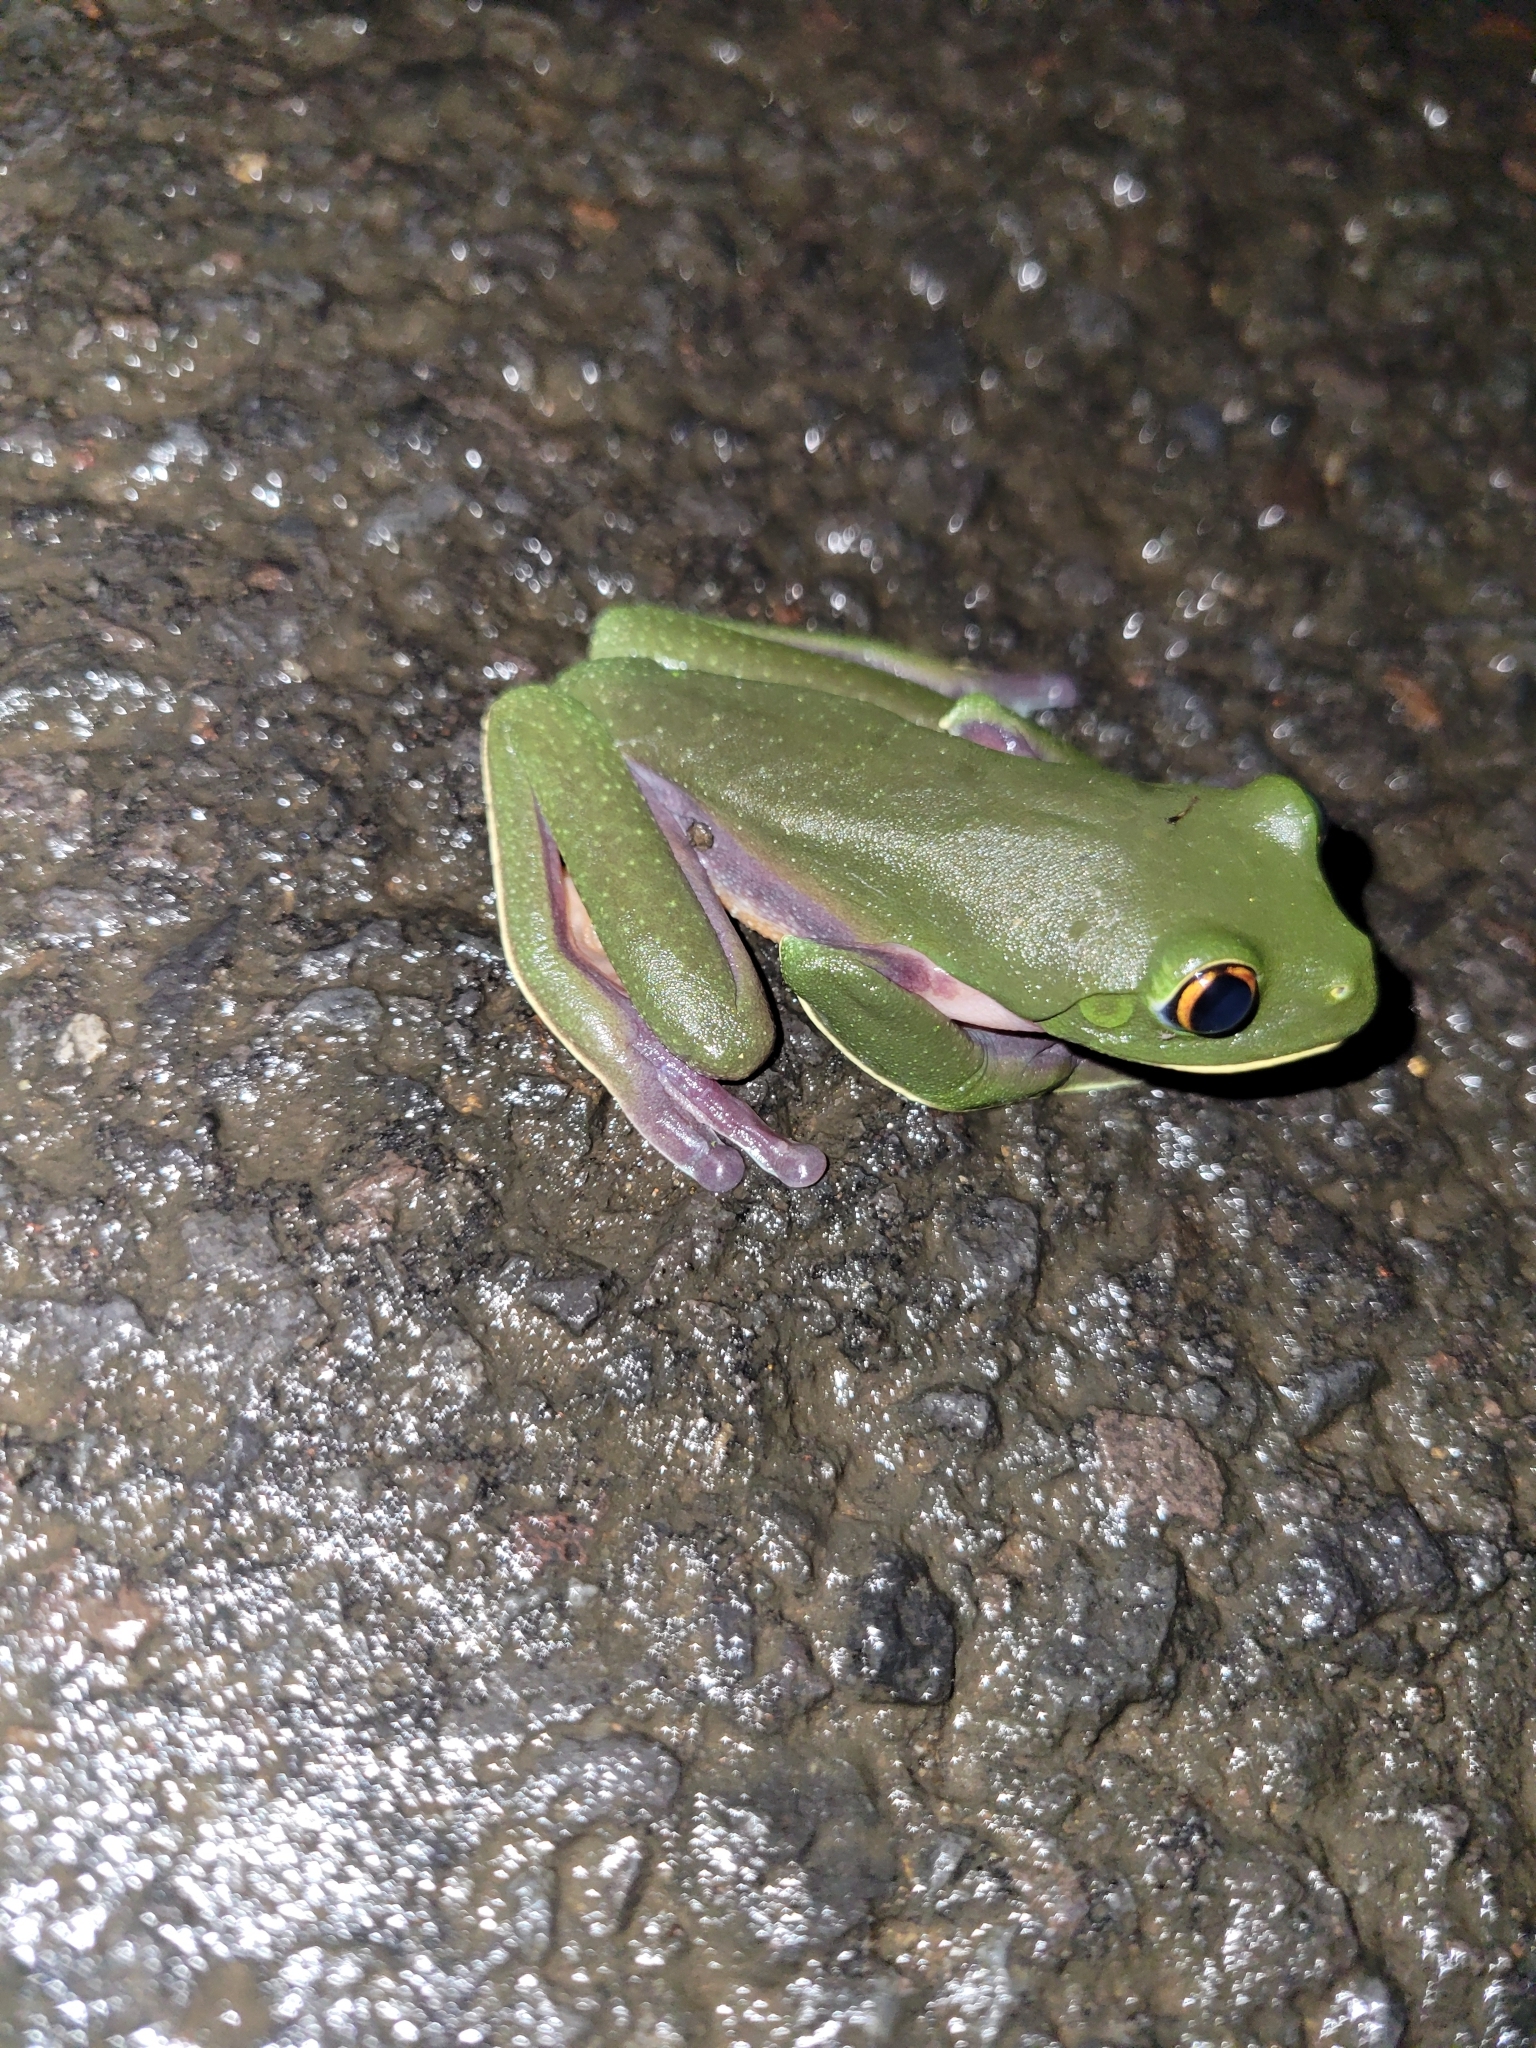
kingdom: Animalia
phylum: Chordata
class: Amphibia
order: Anura
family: Phyllomedusidae
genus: Agalychnis
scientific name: Agalychnis annae
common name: Blue-sided treefrog
